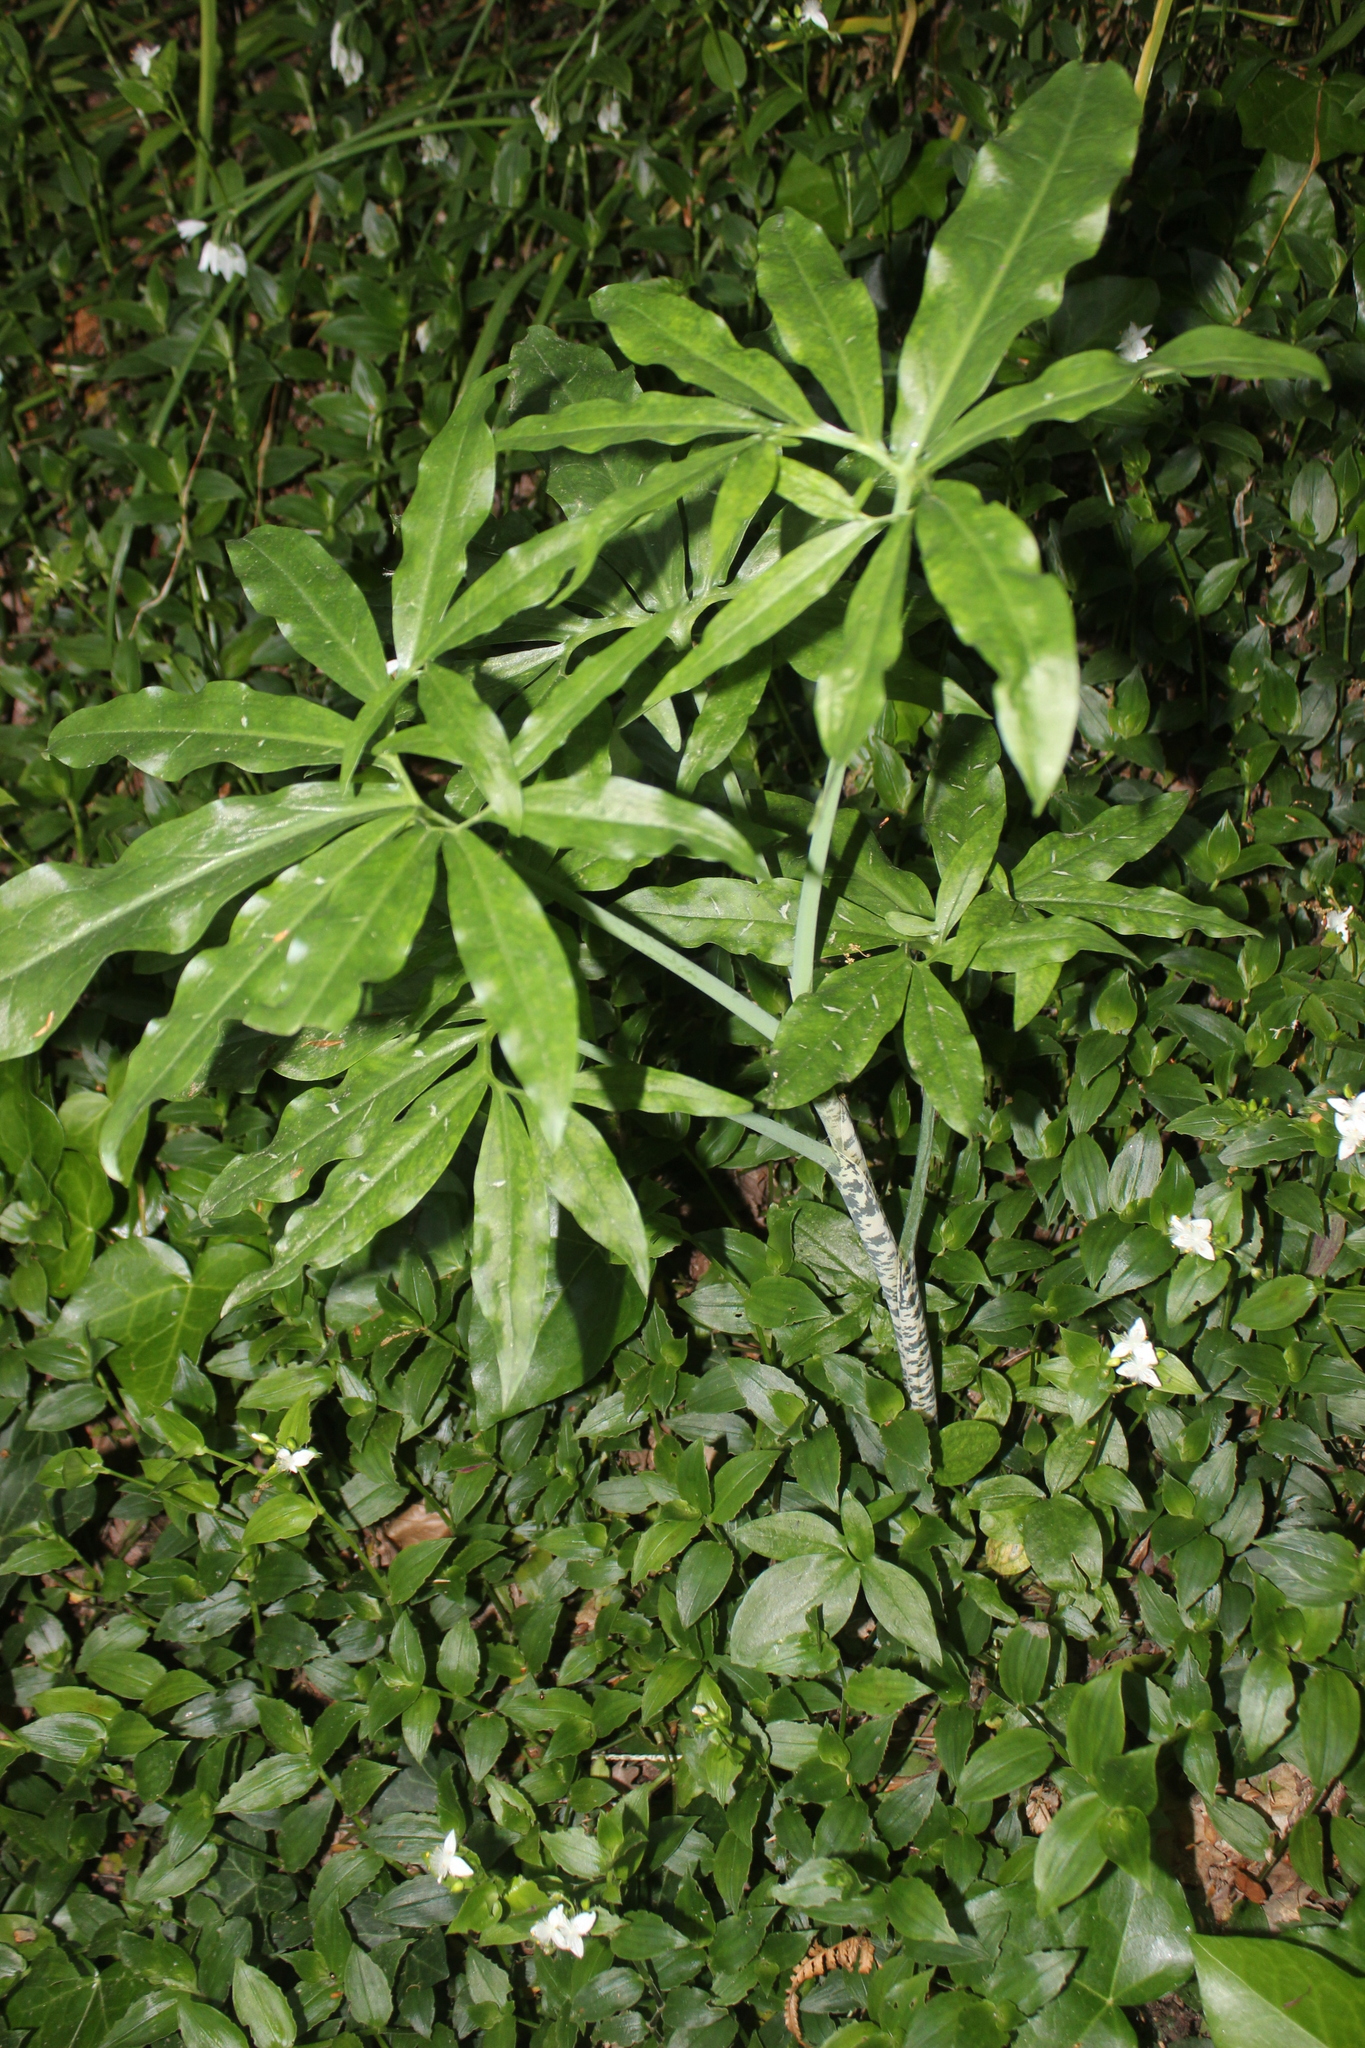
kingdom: Plantae
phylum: Tracheophyta
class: Liliopsida
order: Alismatales
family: Araceae
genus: Dracunculus
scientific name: Dracunculus vulgaris
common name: Dragon arum
